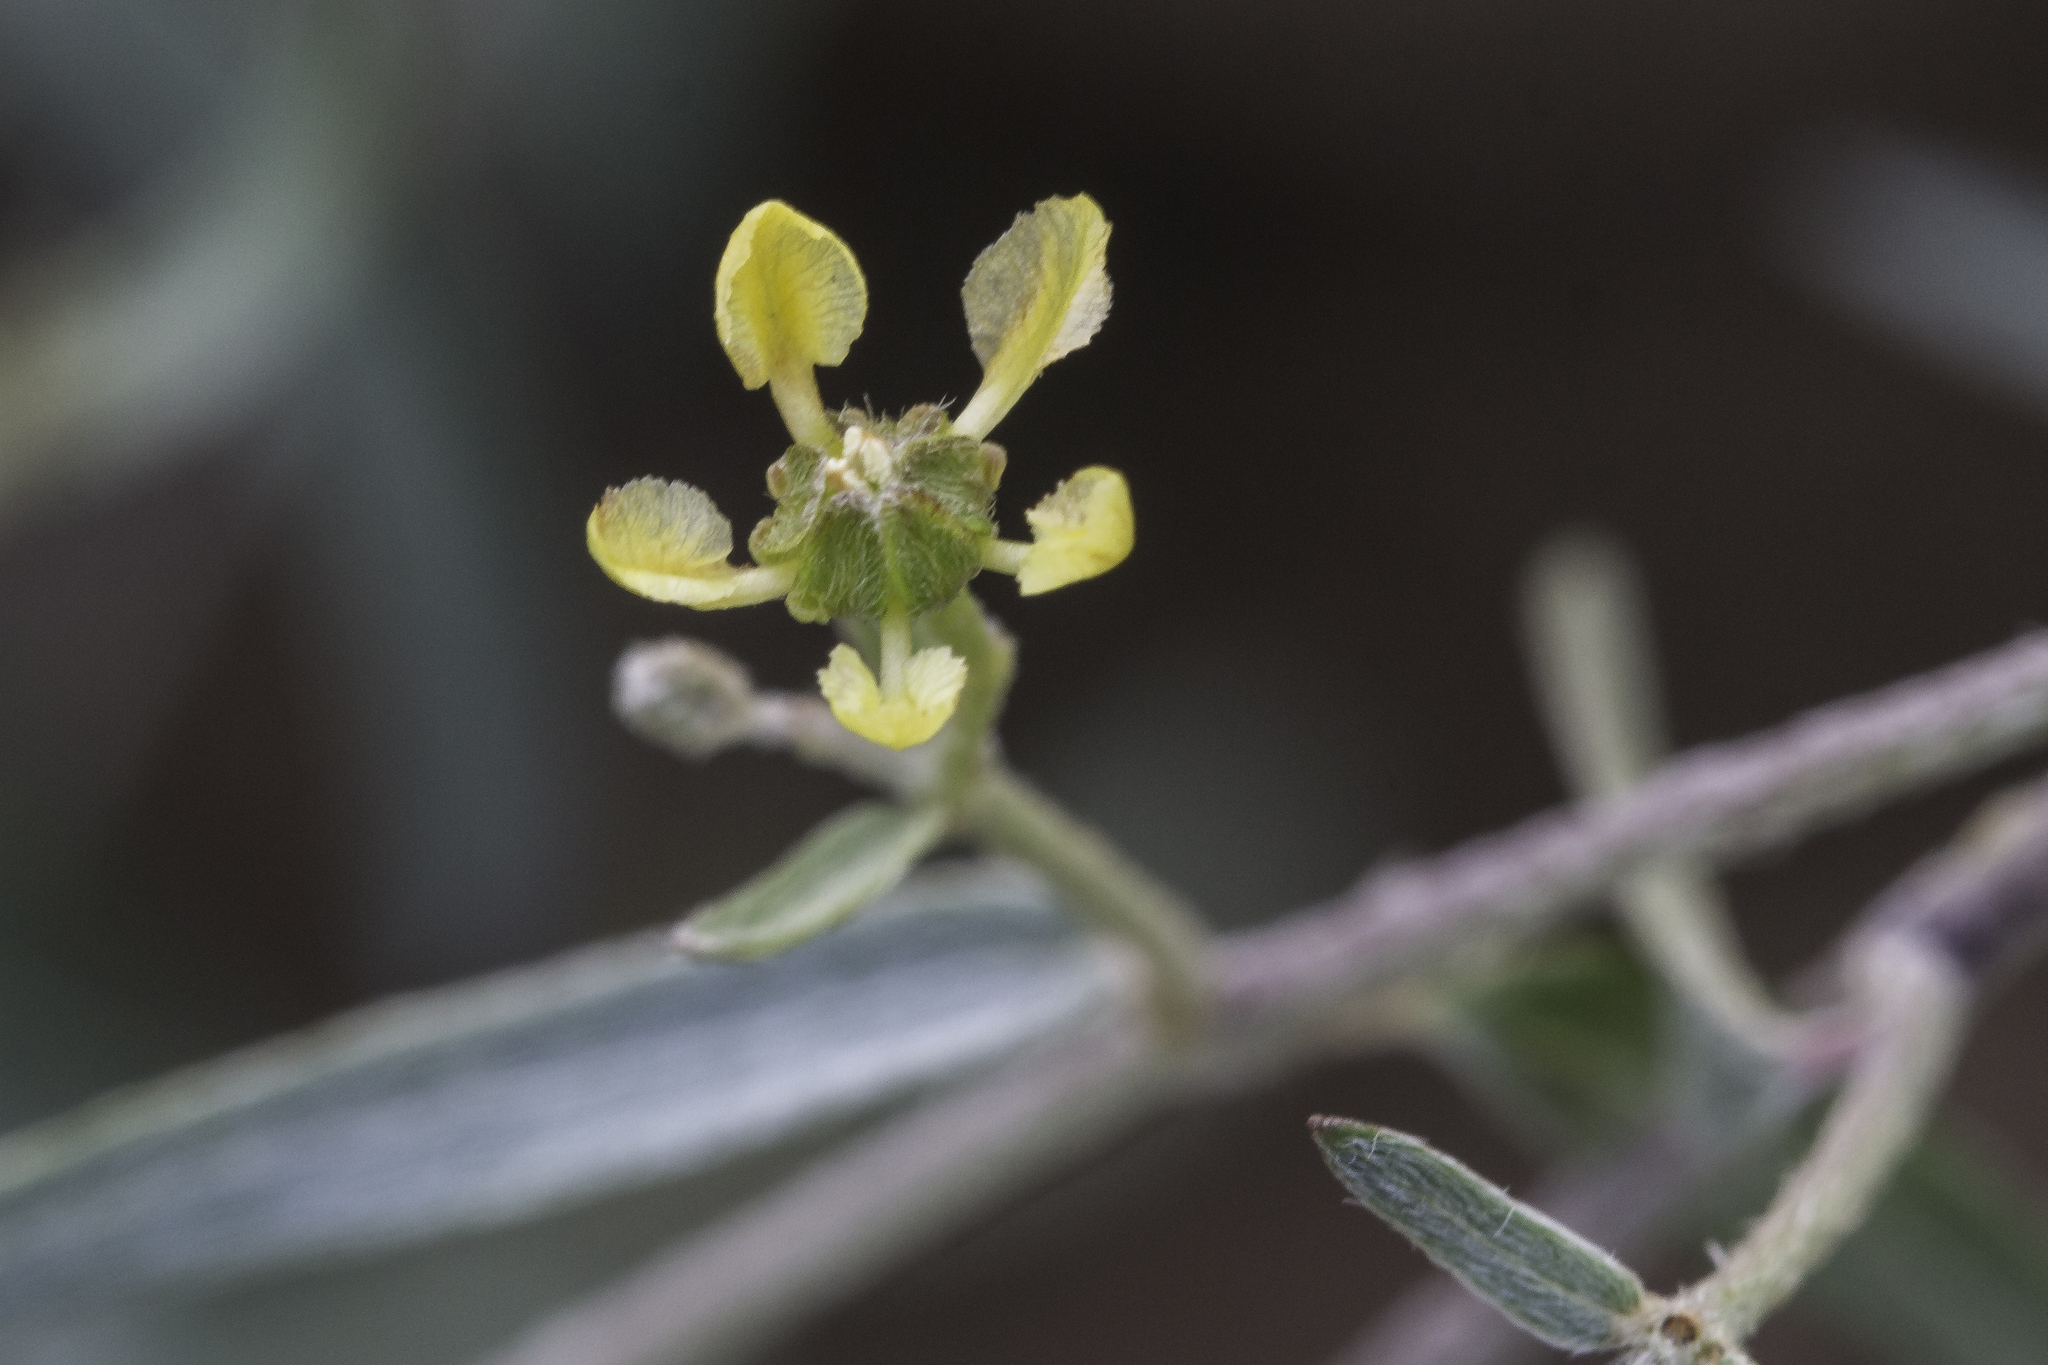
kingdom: Plantae
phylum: Tracheophyta
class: Magnoliopsida
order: Malpighiales
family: Malpighiaceae
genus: Cottsia
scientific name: Cottsia gracilis
